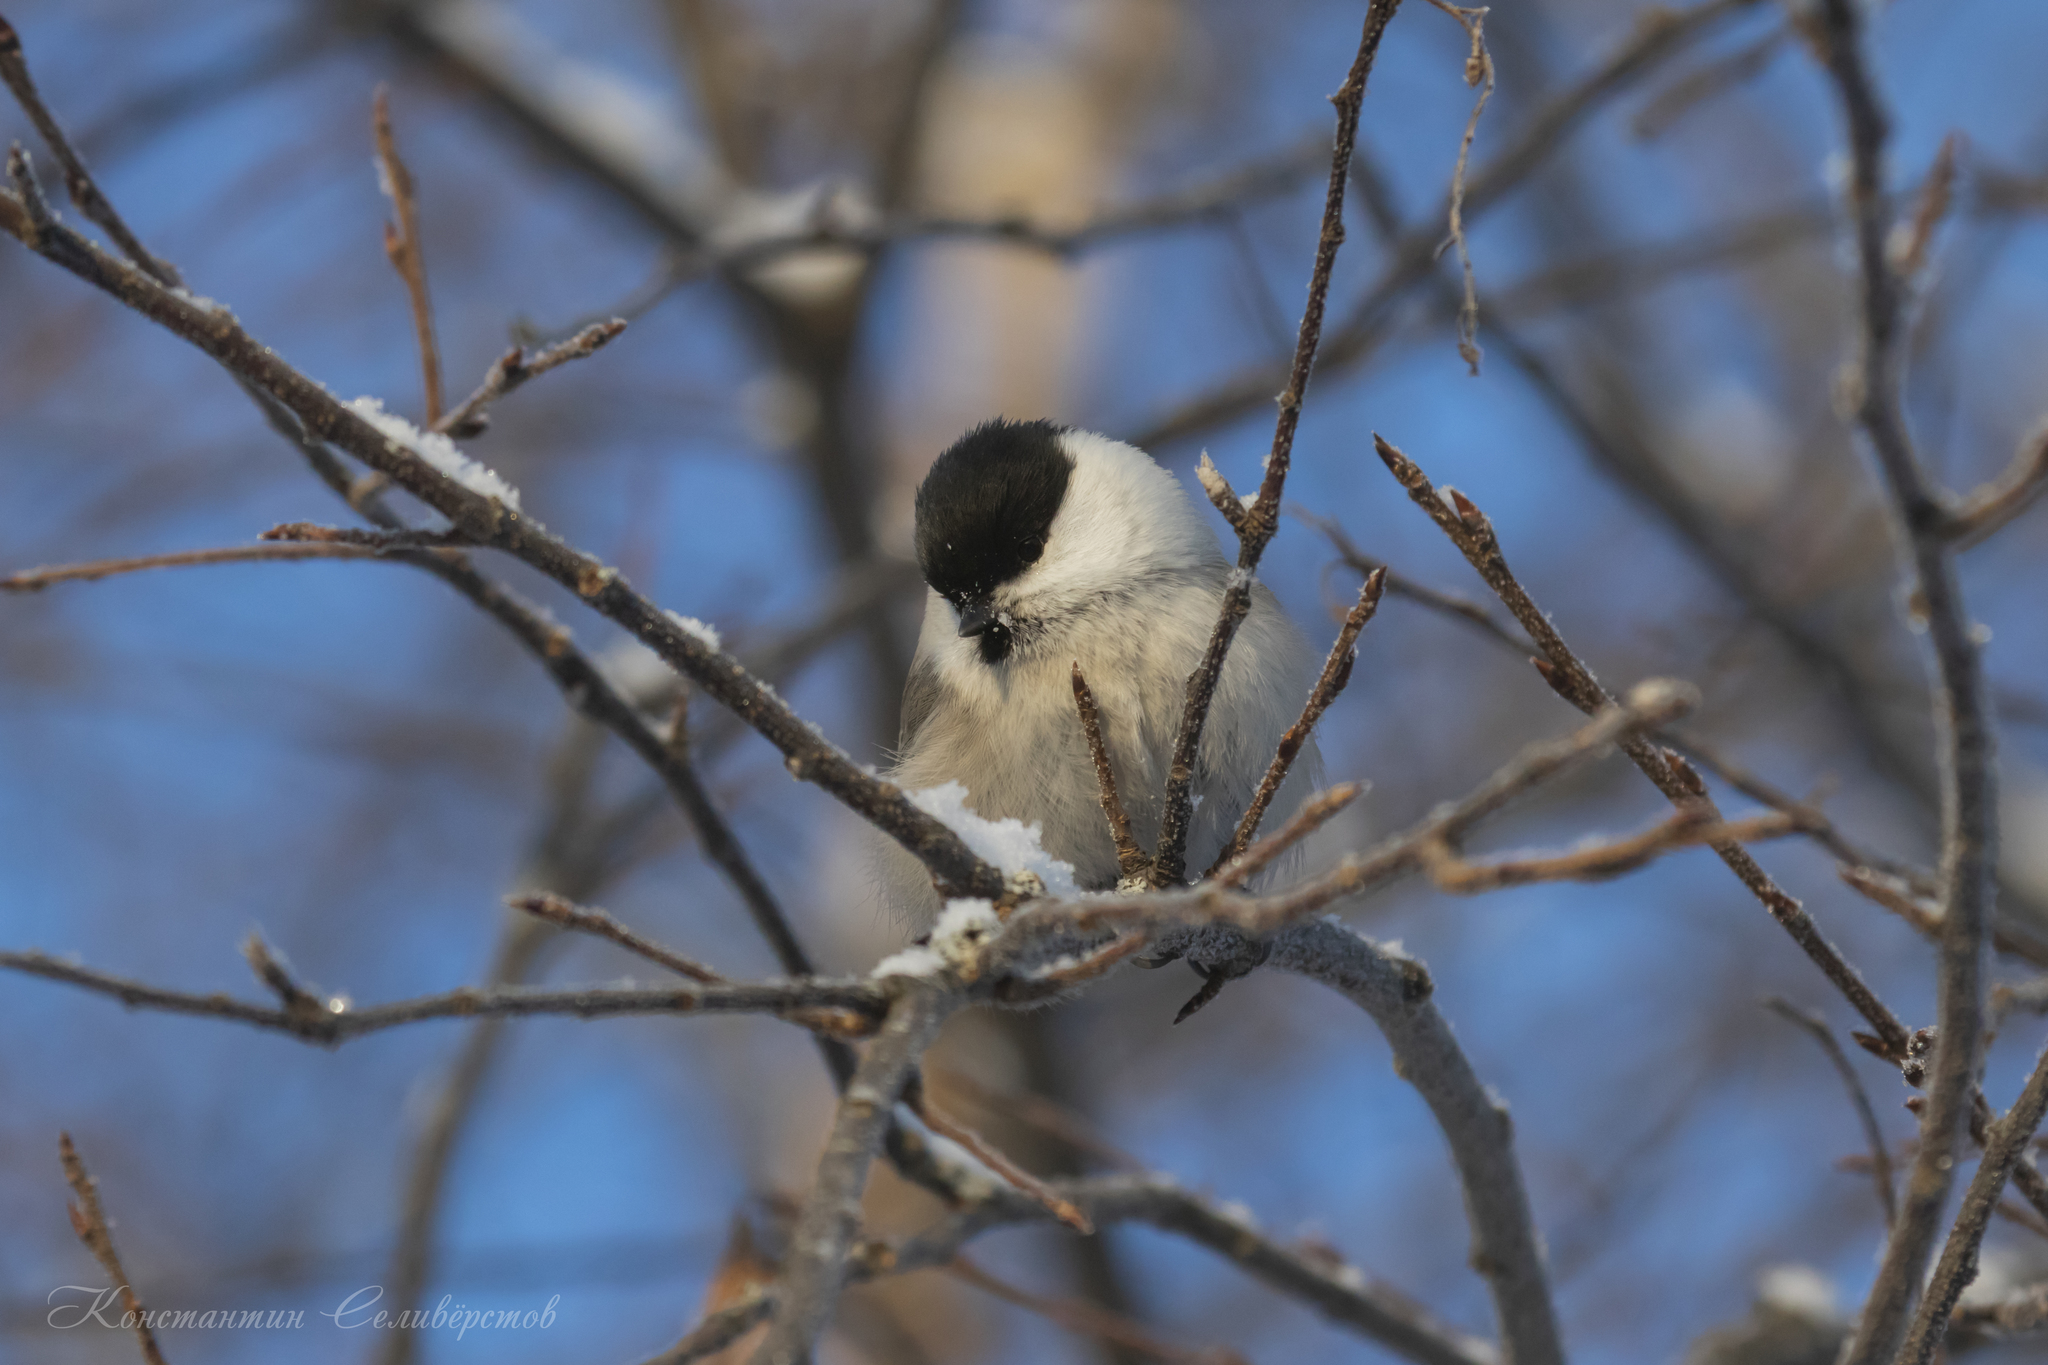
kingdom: Animalia
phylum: Chordata
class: Aves
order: Passeriformes
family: Paridae
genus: Poecile
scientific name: Poecile montanus
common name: Willow tit
